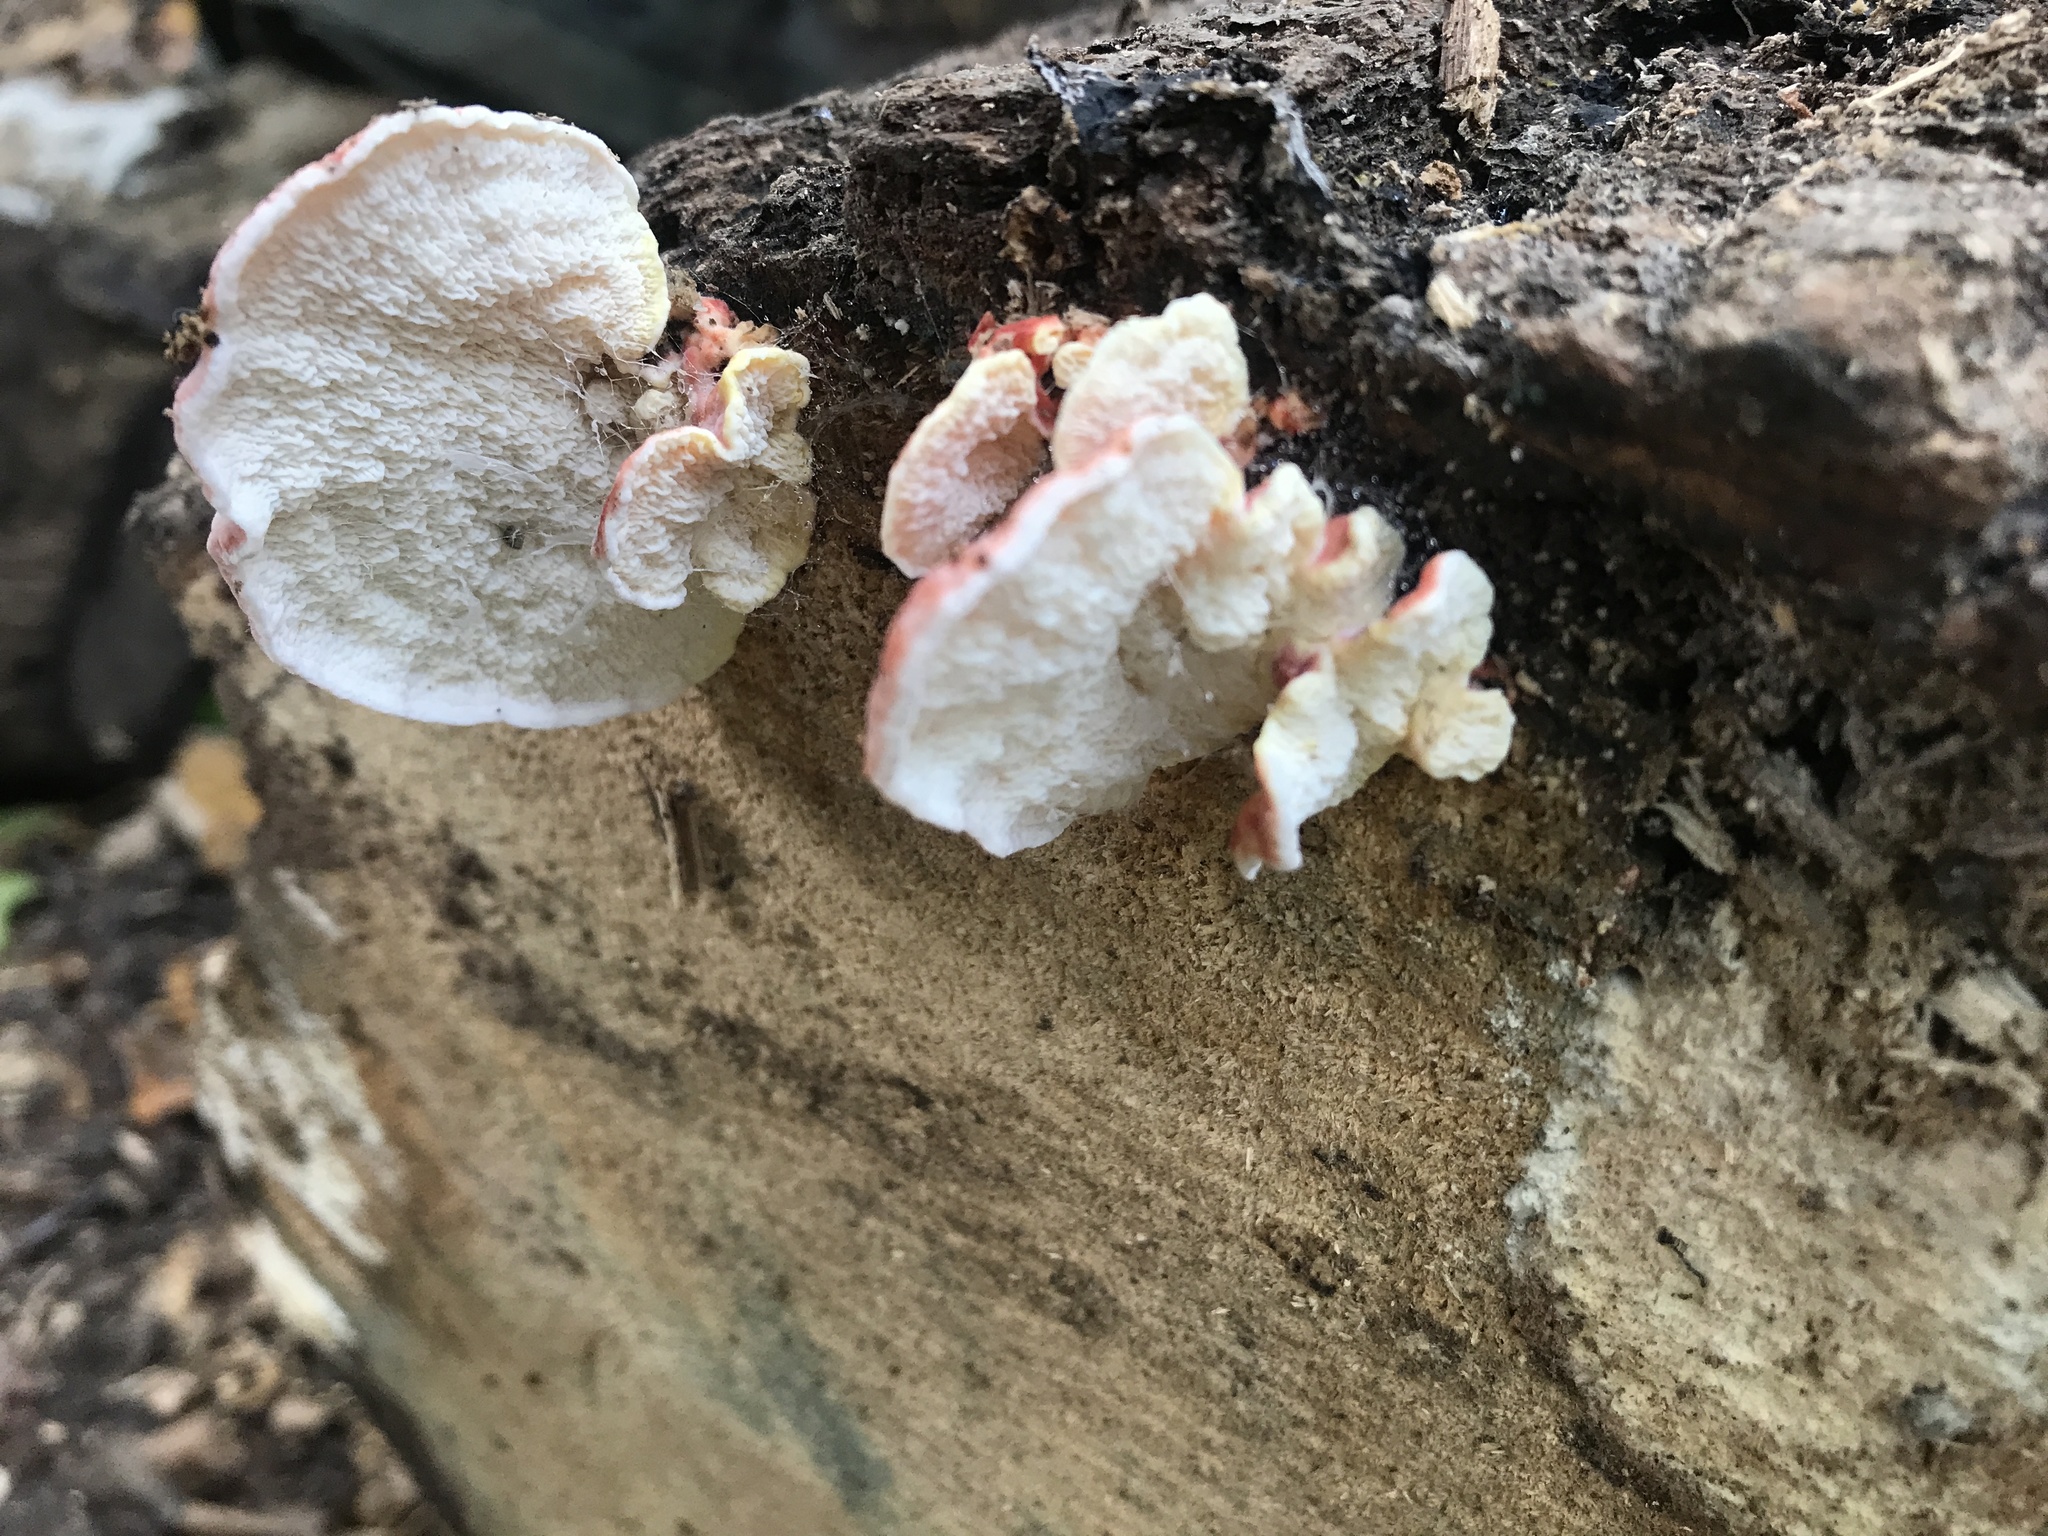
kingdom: Fungi
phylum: Basidiomycota
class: Agaricomycetes
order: Polyporales
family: Irpicaceae
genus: Byssomerulius
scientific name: Byssomerulius incarnatus
